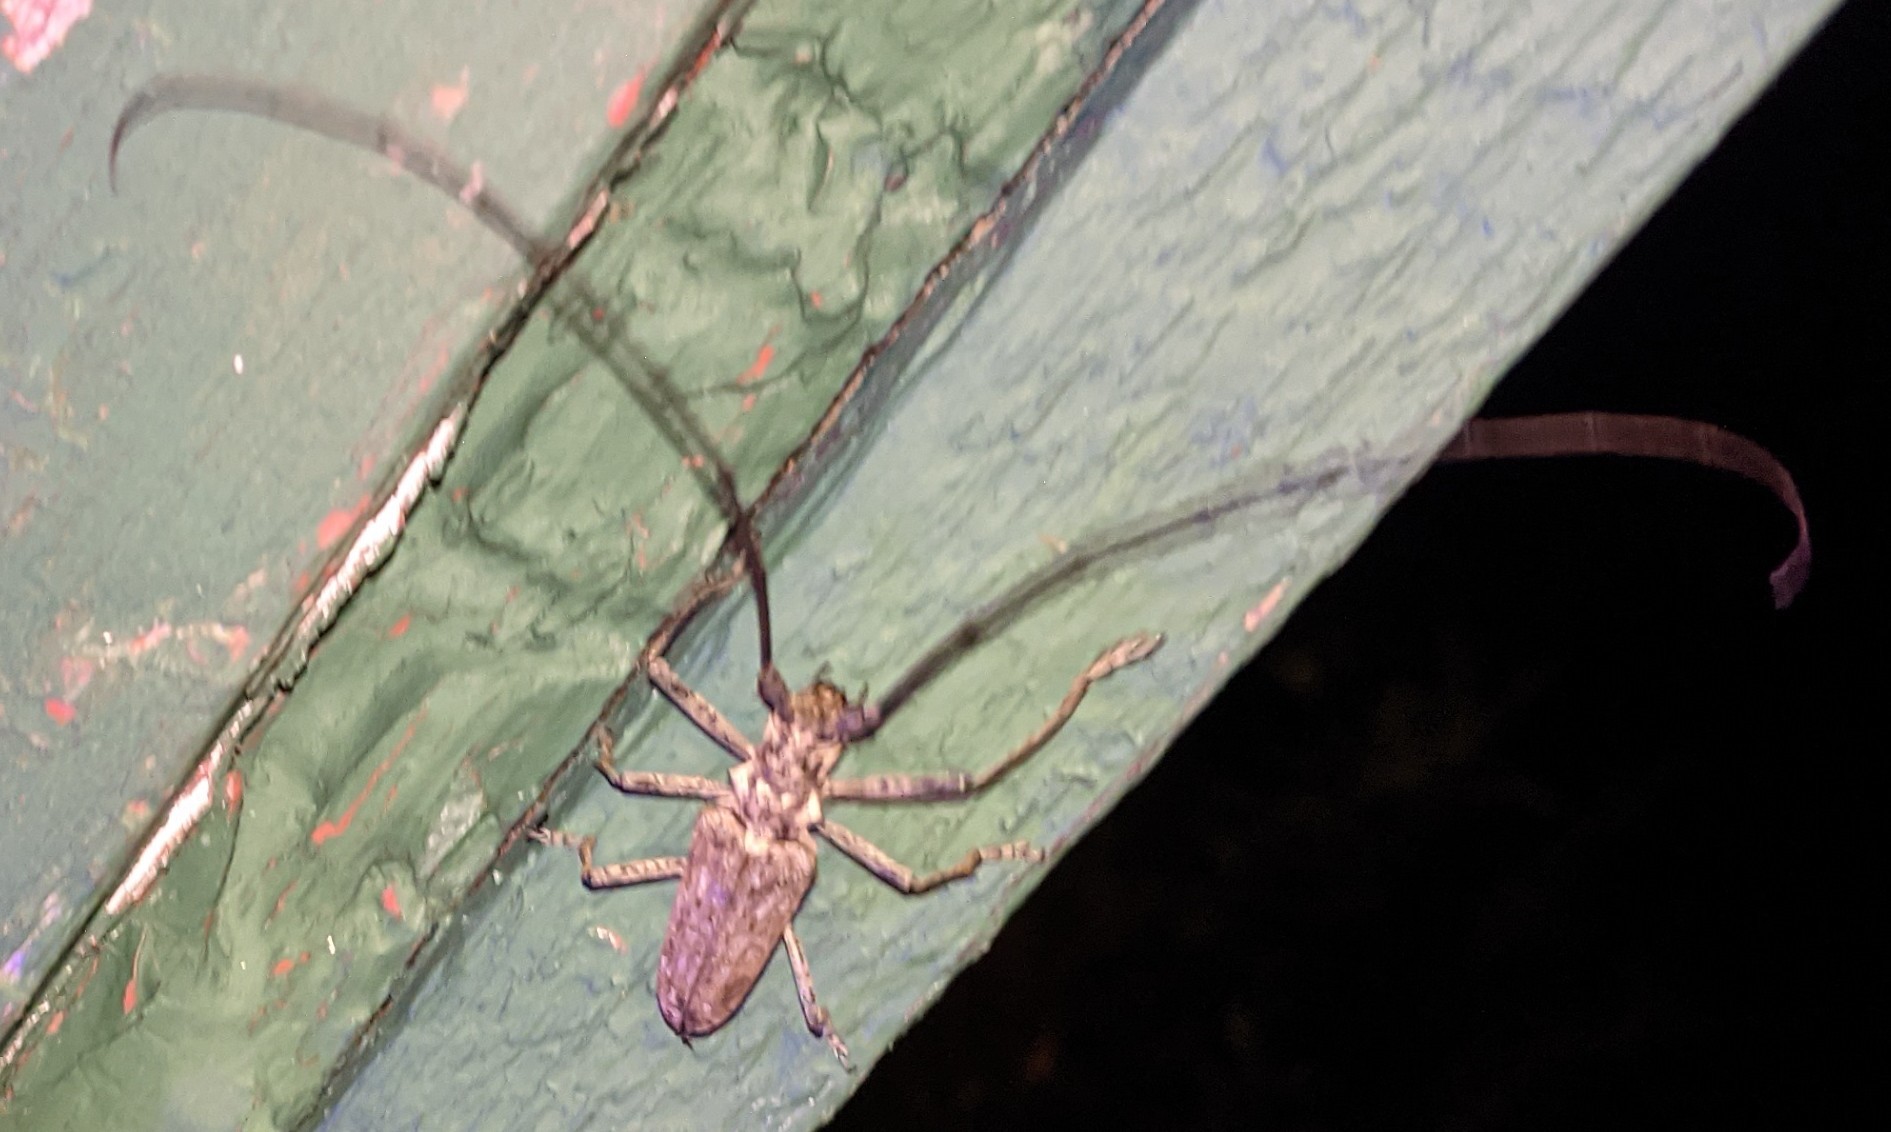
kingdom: Animalia
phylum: Arthropoda
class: Insecta
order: Coleoptera
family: Cerambycidae
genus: Monochamus
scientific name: Monochamus notatus
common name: Northeastern pine sawyer beetle
